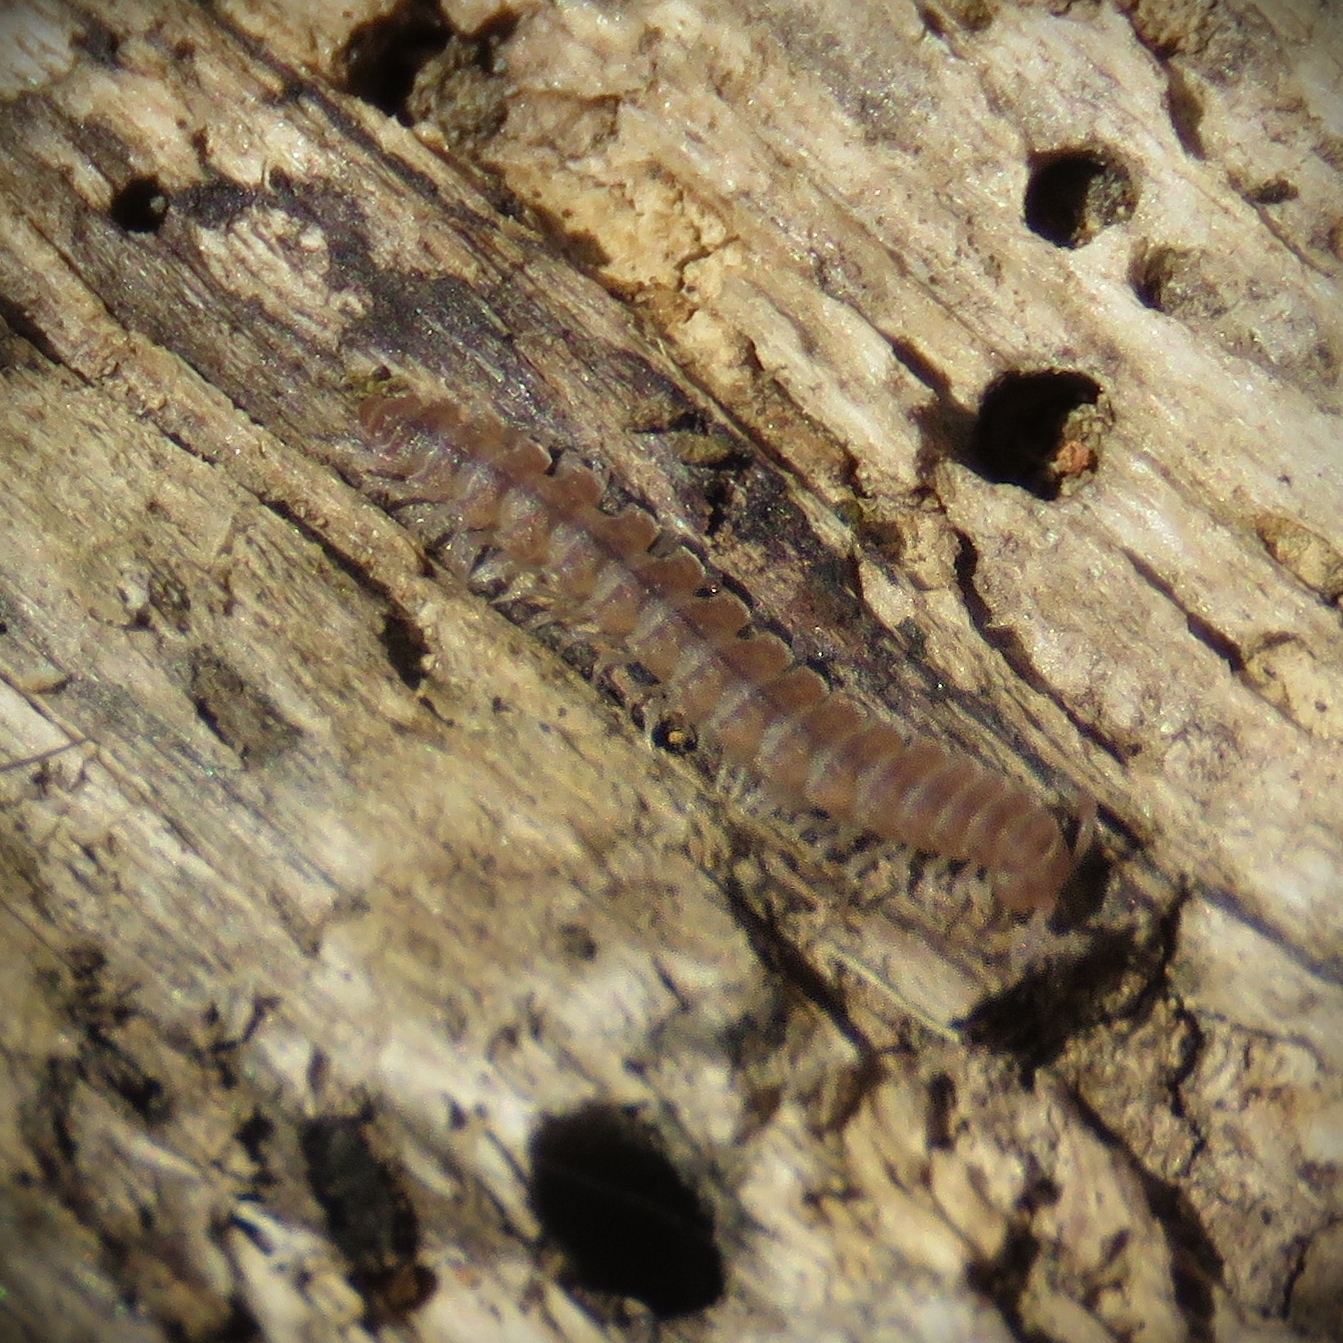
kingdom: Animalia
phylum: Arthropoda
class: Diplopoda
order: Polydesmida
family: Polydesmidae
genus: Polydesmus
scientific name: Polydesmus
